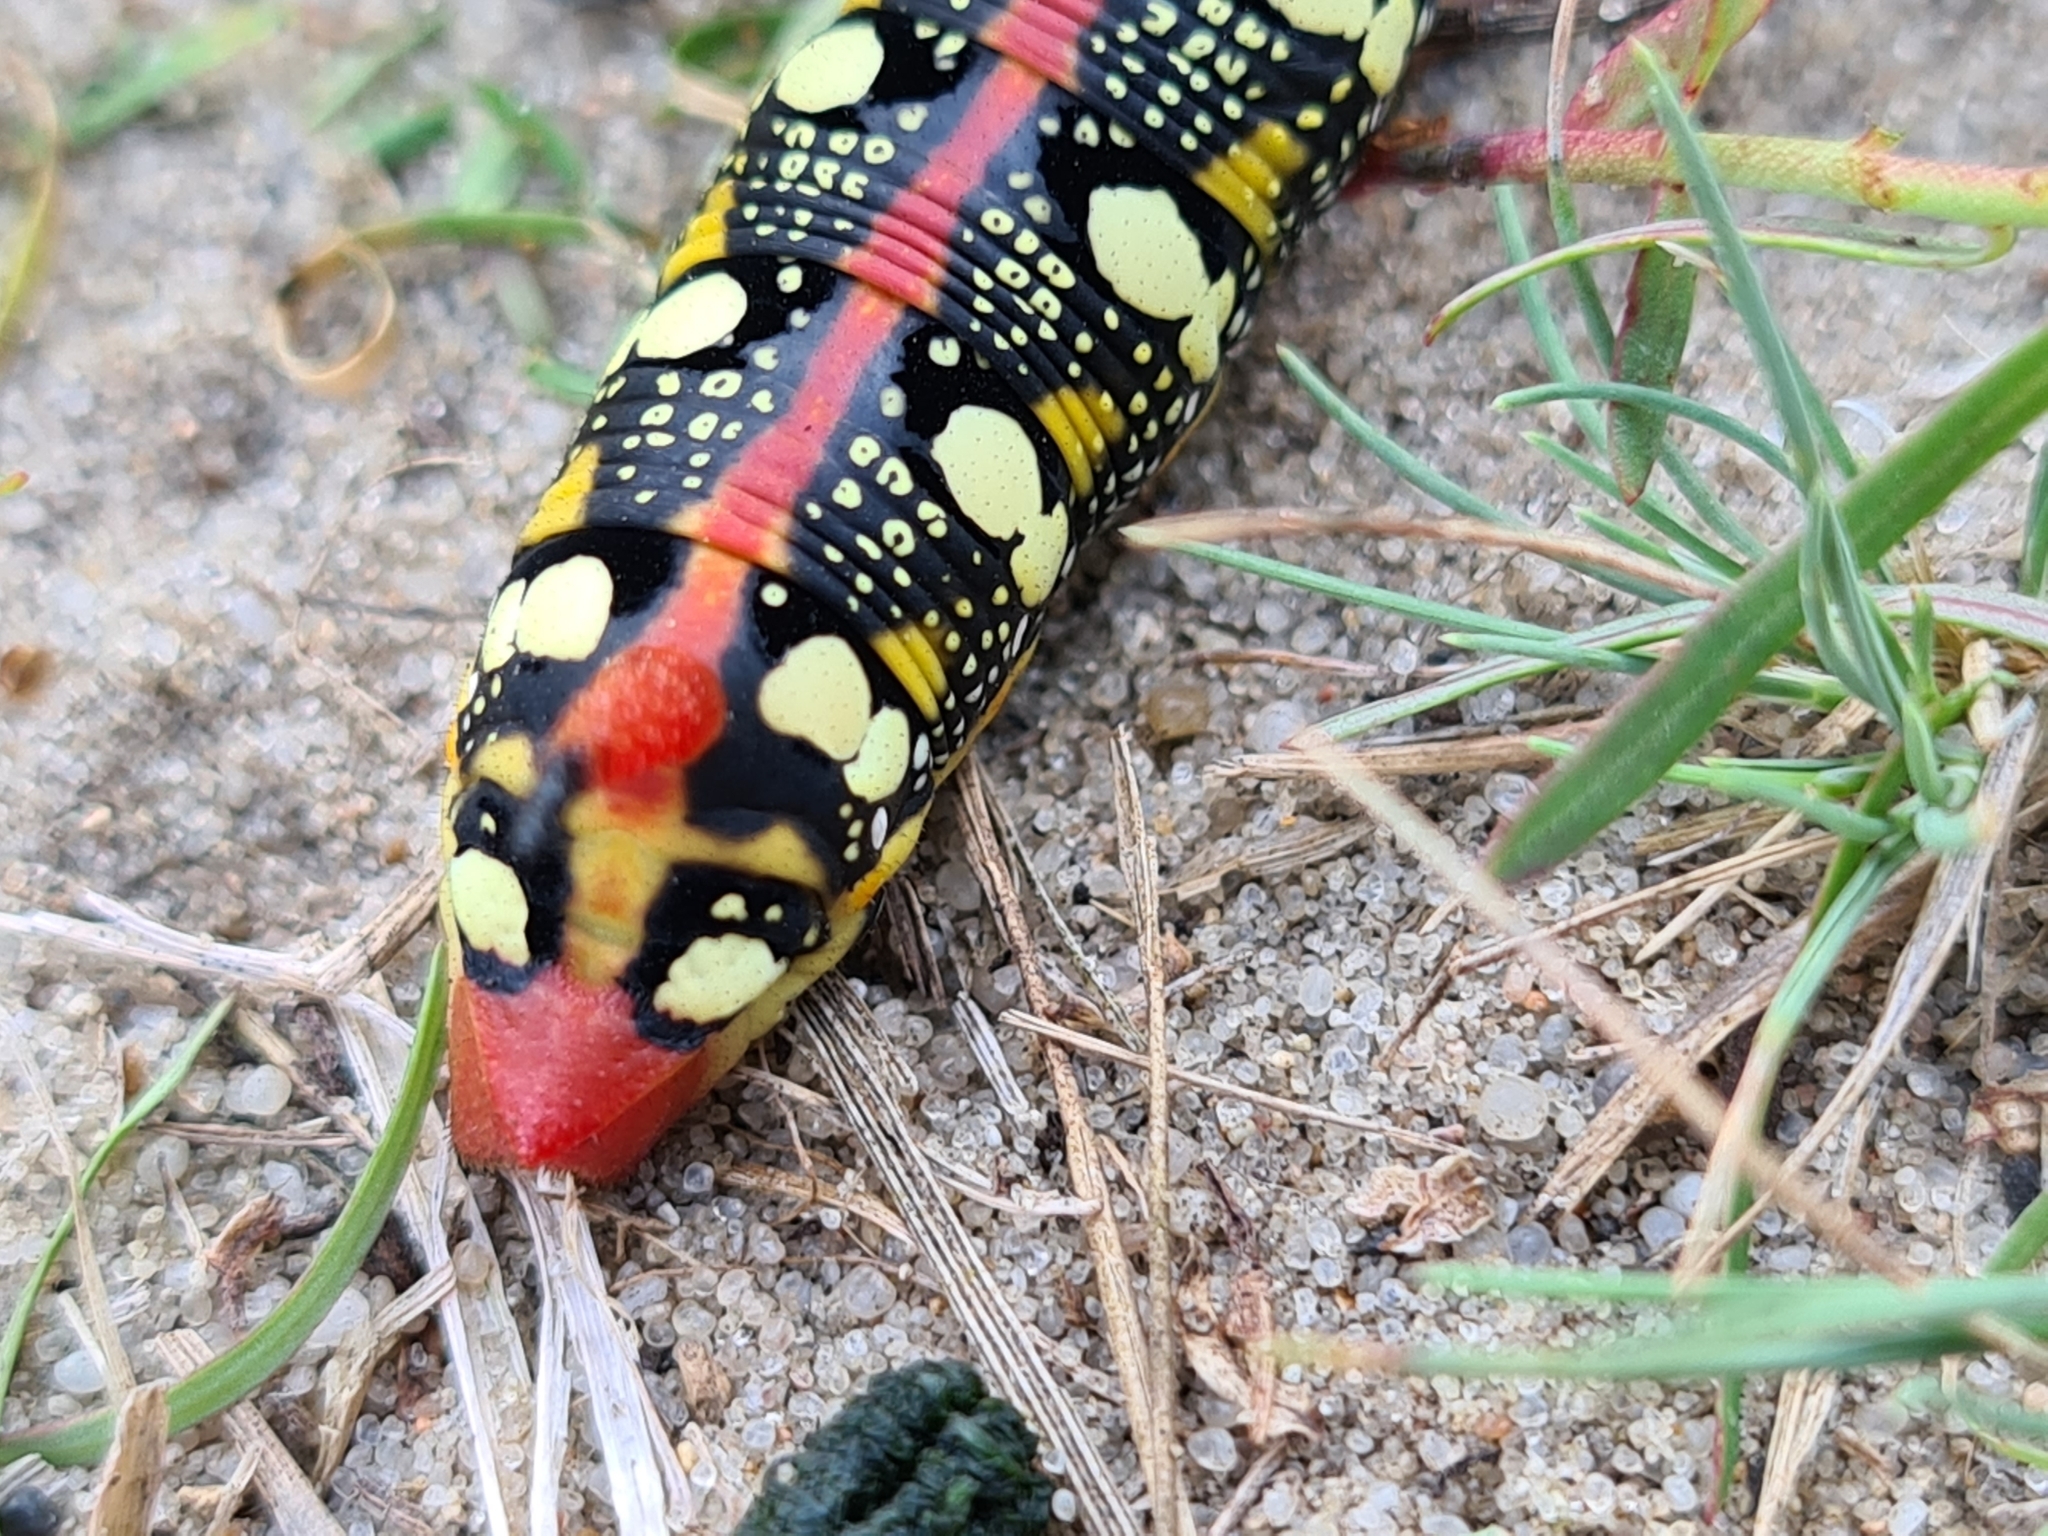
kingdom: Animalia
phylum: Arthropoda
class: Insecta
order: Lepidoptera
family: Sphingidae
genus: Hyles
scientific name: Hyles euphorbiae
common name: Spurge hawk-moth
